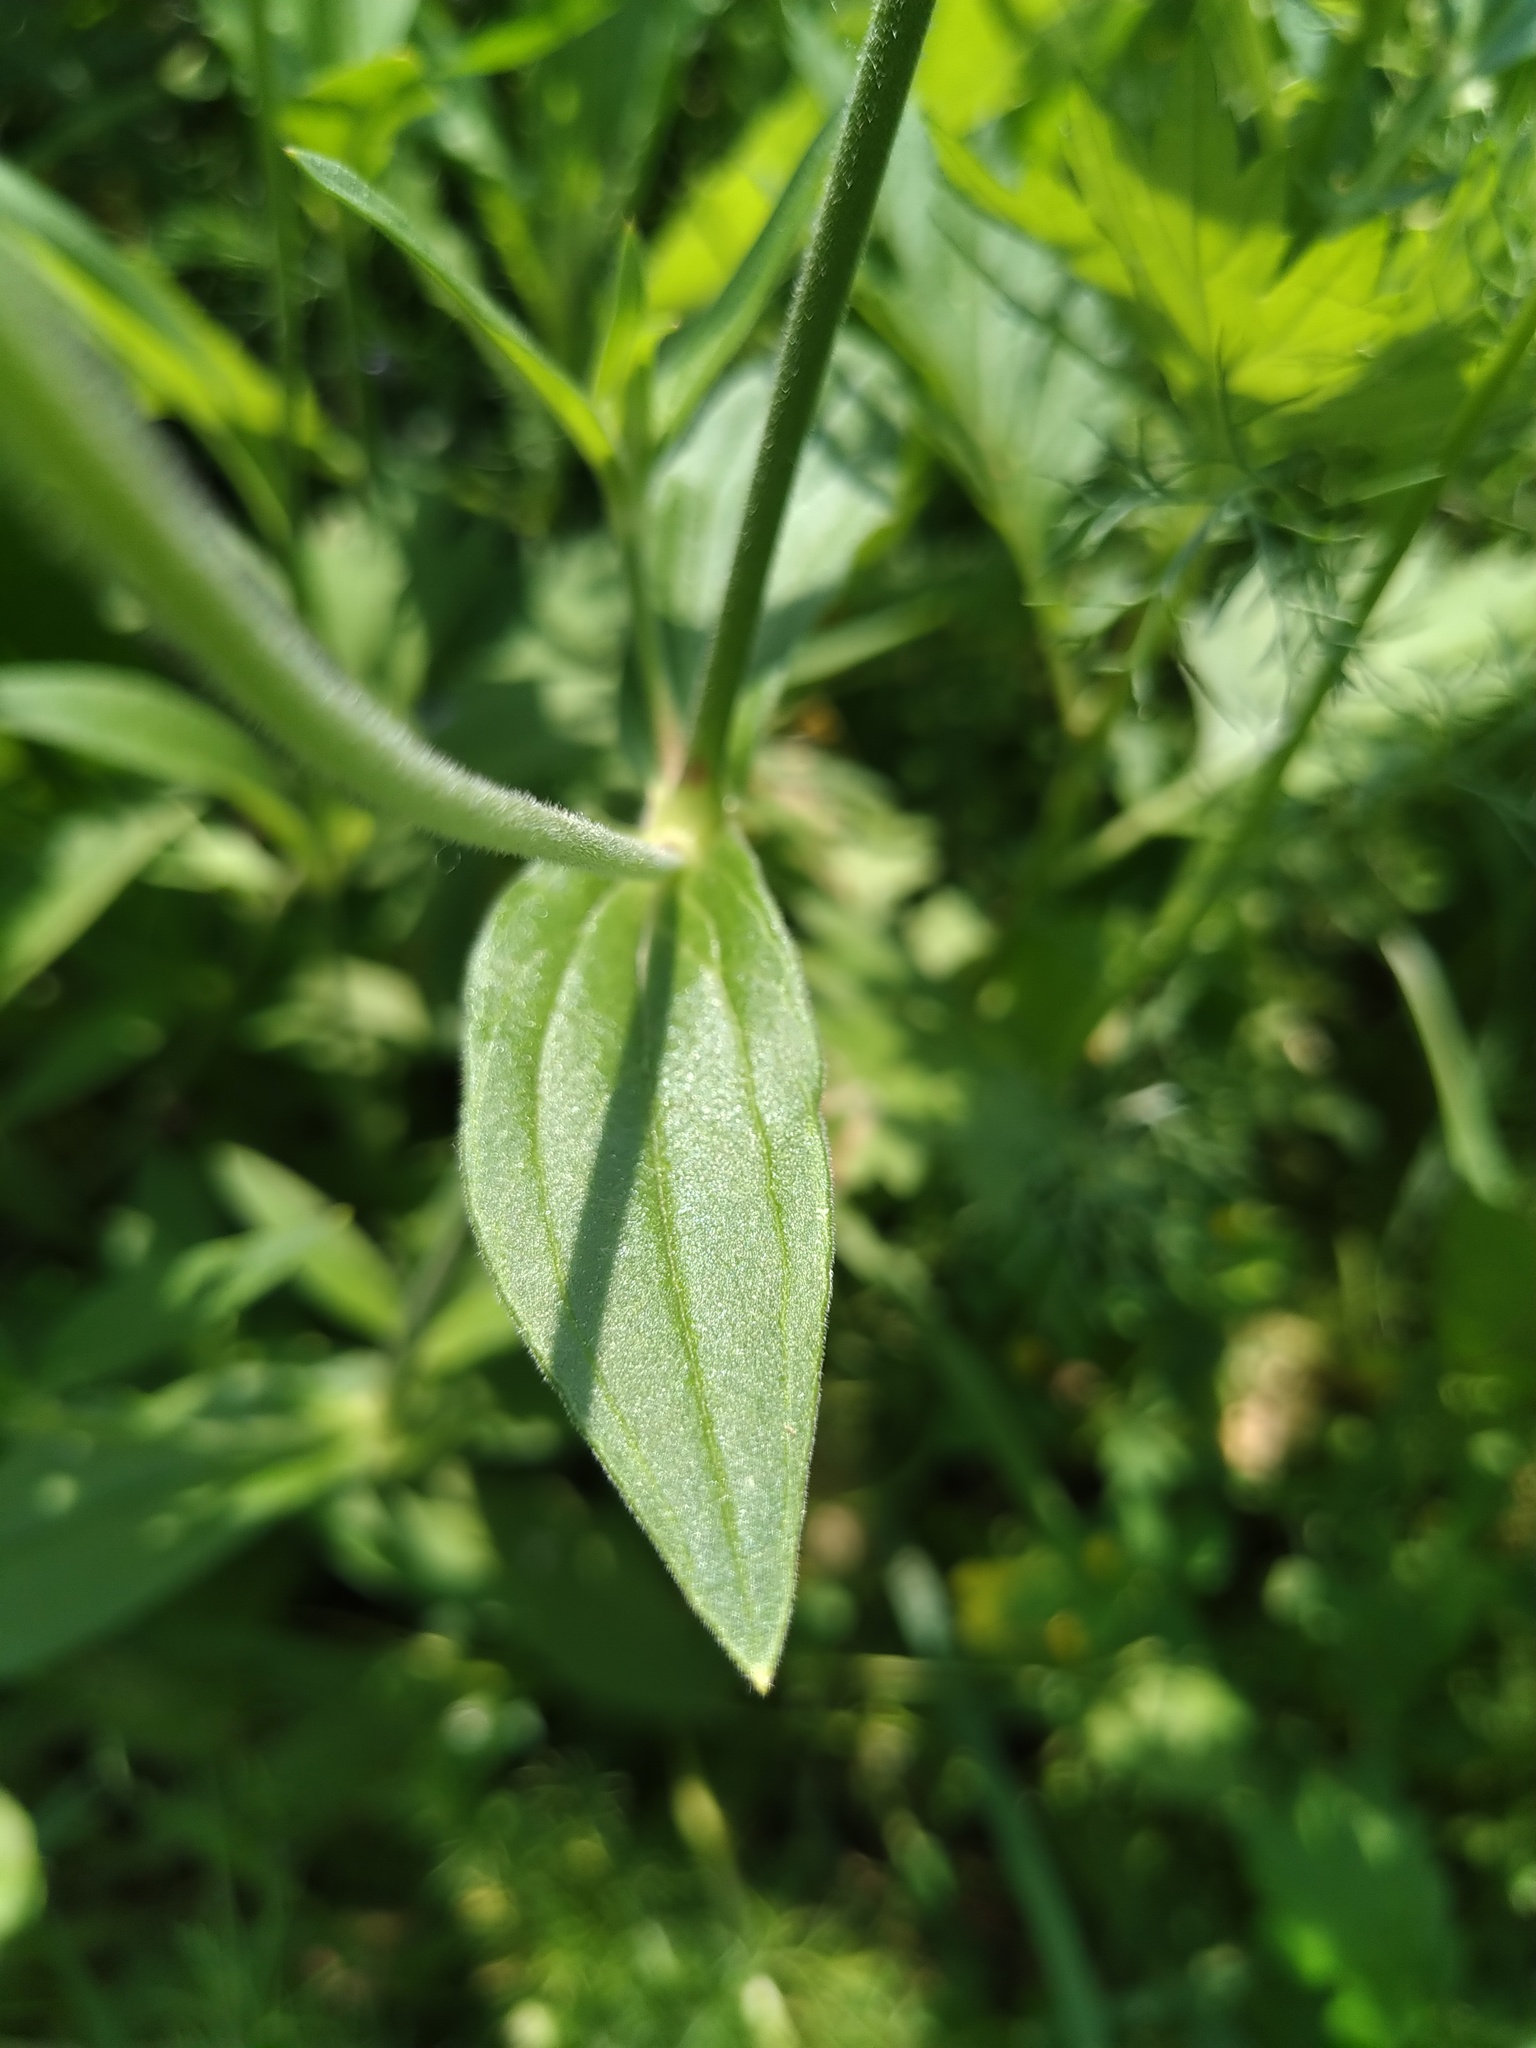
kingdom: Plantae
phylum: Tracheophyta
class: Magnoliopsida
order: Caryophyllales
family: Caryophyllaceae
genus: Silene
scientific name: Silene latifolia
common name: White campion
